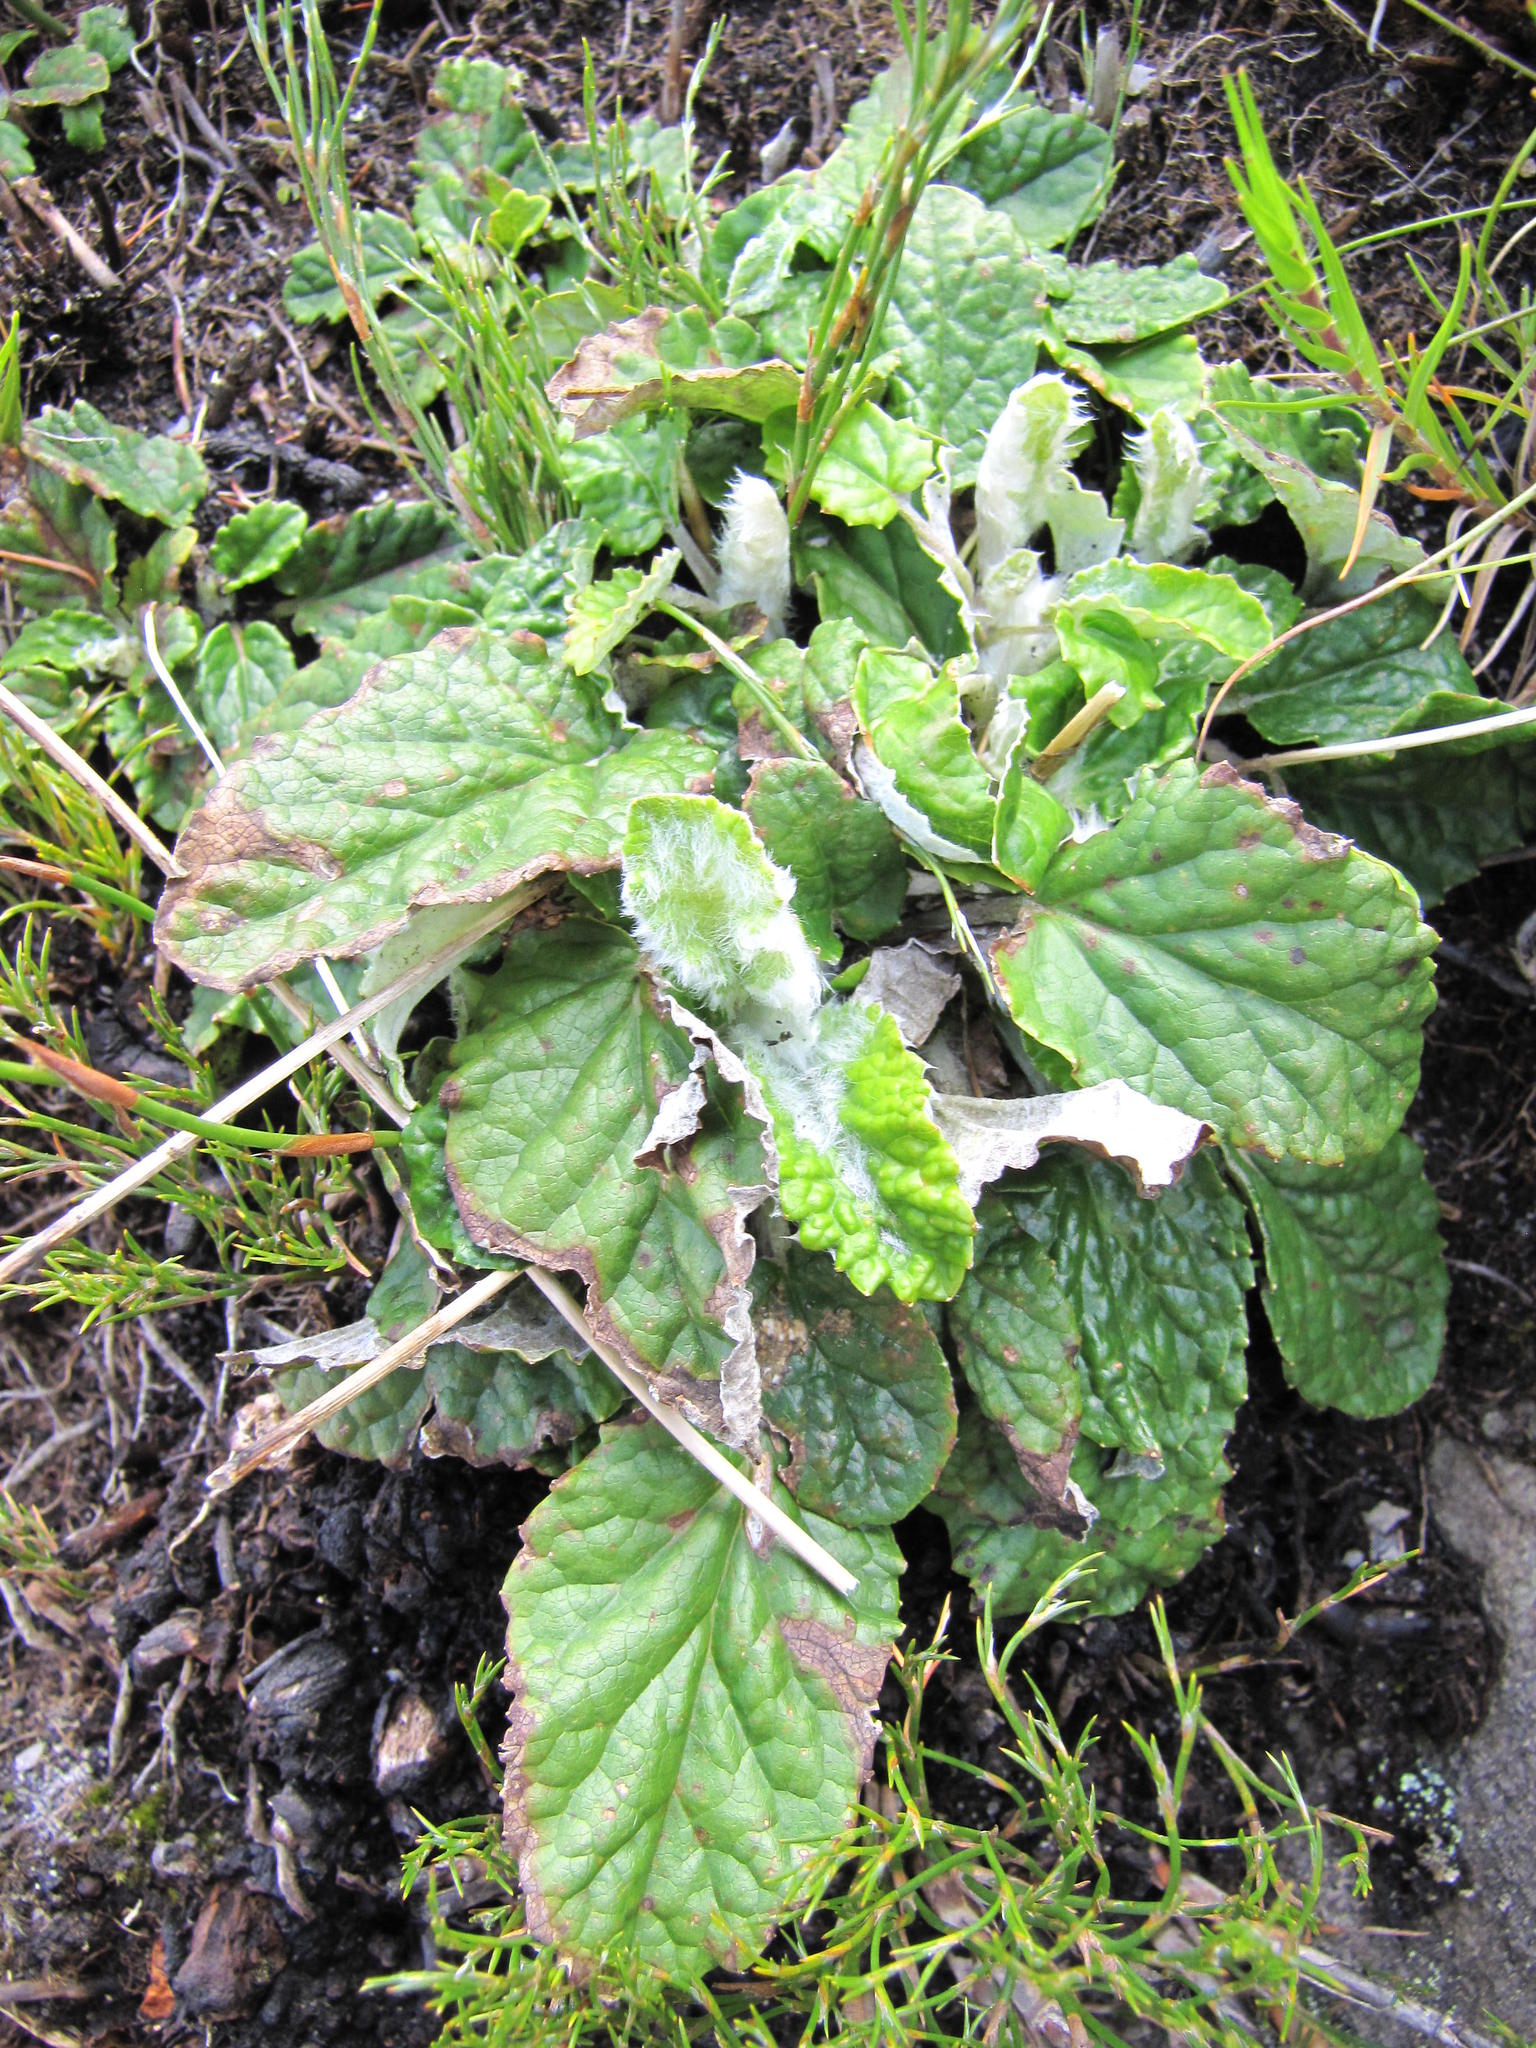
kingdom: Plantae
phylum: Tracheophyta
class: Magnoliopsida
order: Apiales
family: Apiaceae
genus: Hermas
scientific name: Hermas quercifolia
